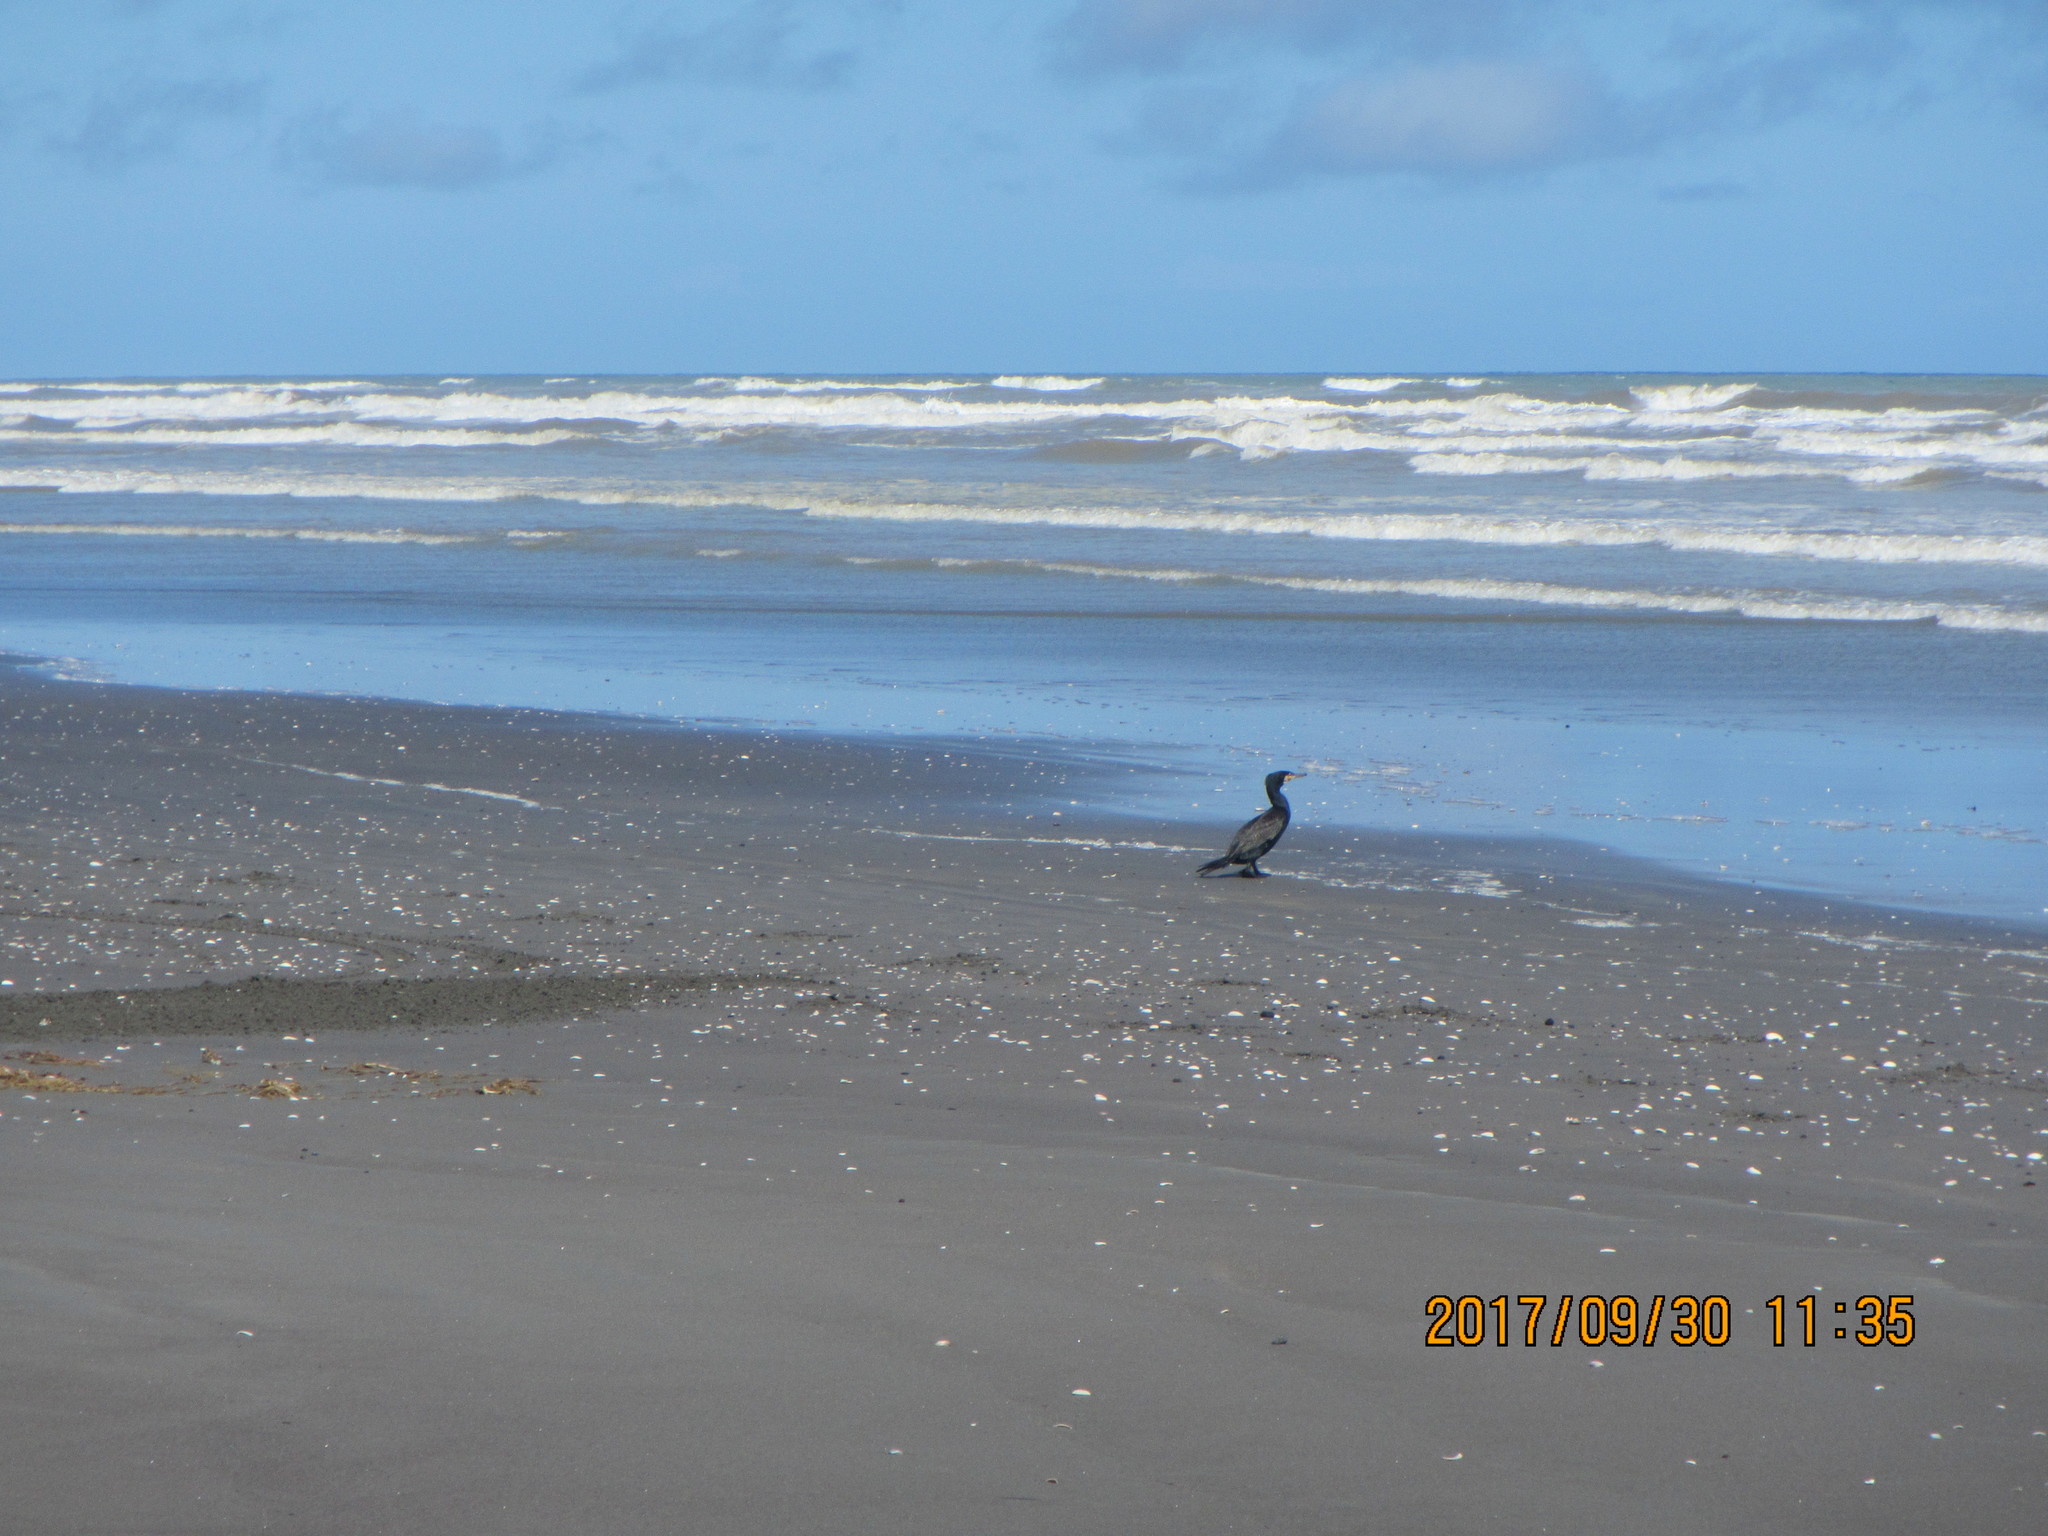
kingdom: Animalia
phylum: Chordata
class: Aves
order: Suliformes
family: Phalacrocoracidae
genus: Phalacrocorax
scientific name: Phalacrocorax carbo
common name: Great cormorant
